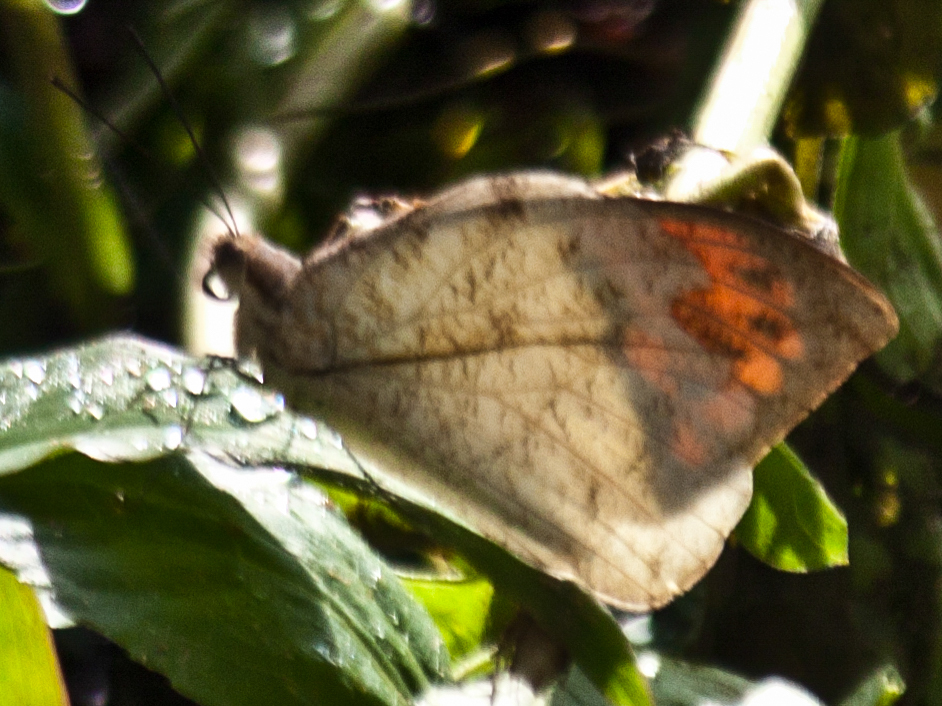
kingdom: Animalia
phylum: Arthropoda
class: Insecta
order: Lepidoptera
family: Pieridae
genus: Hebomoia
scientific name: Hebomoia glaucippe
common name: Great orange tip
